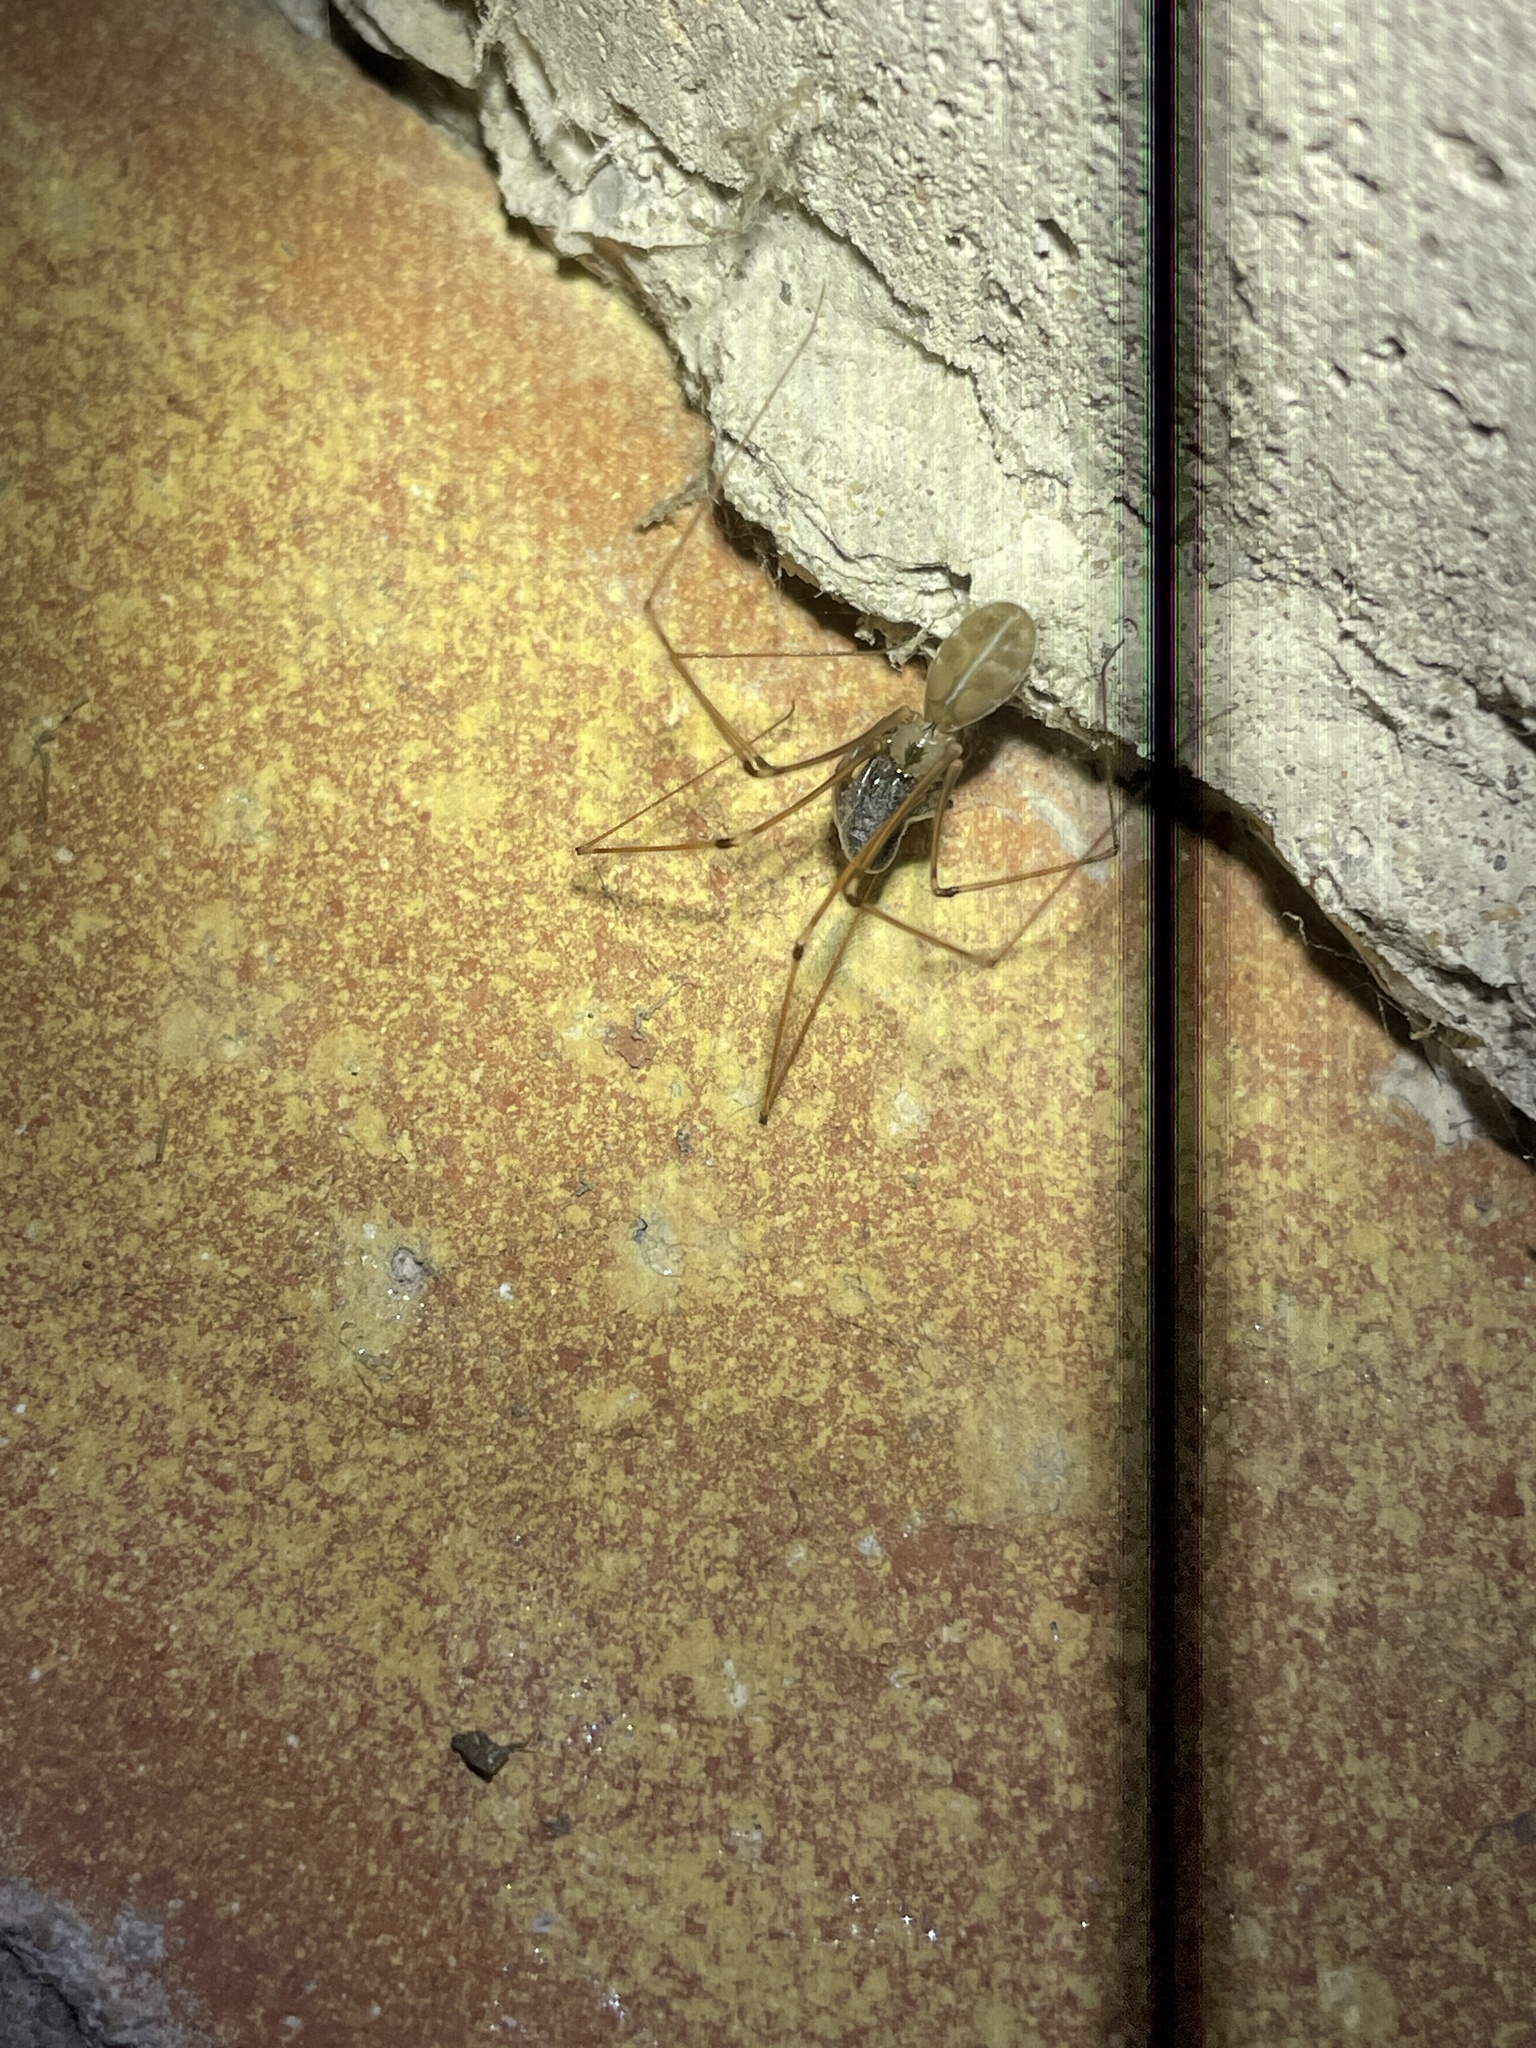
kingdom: Animalia
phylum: Arthropoda
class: Arachnida
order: Araneae
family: Pholcidae
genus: Pholcus
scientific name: Pholcus phalangioides
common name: Longbodied cellar spider
